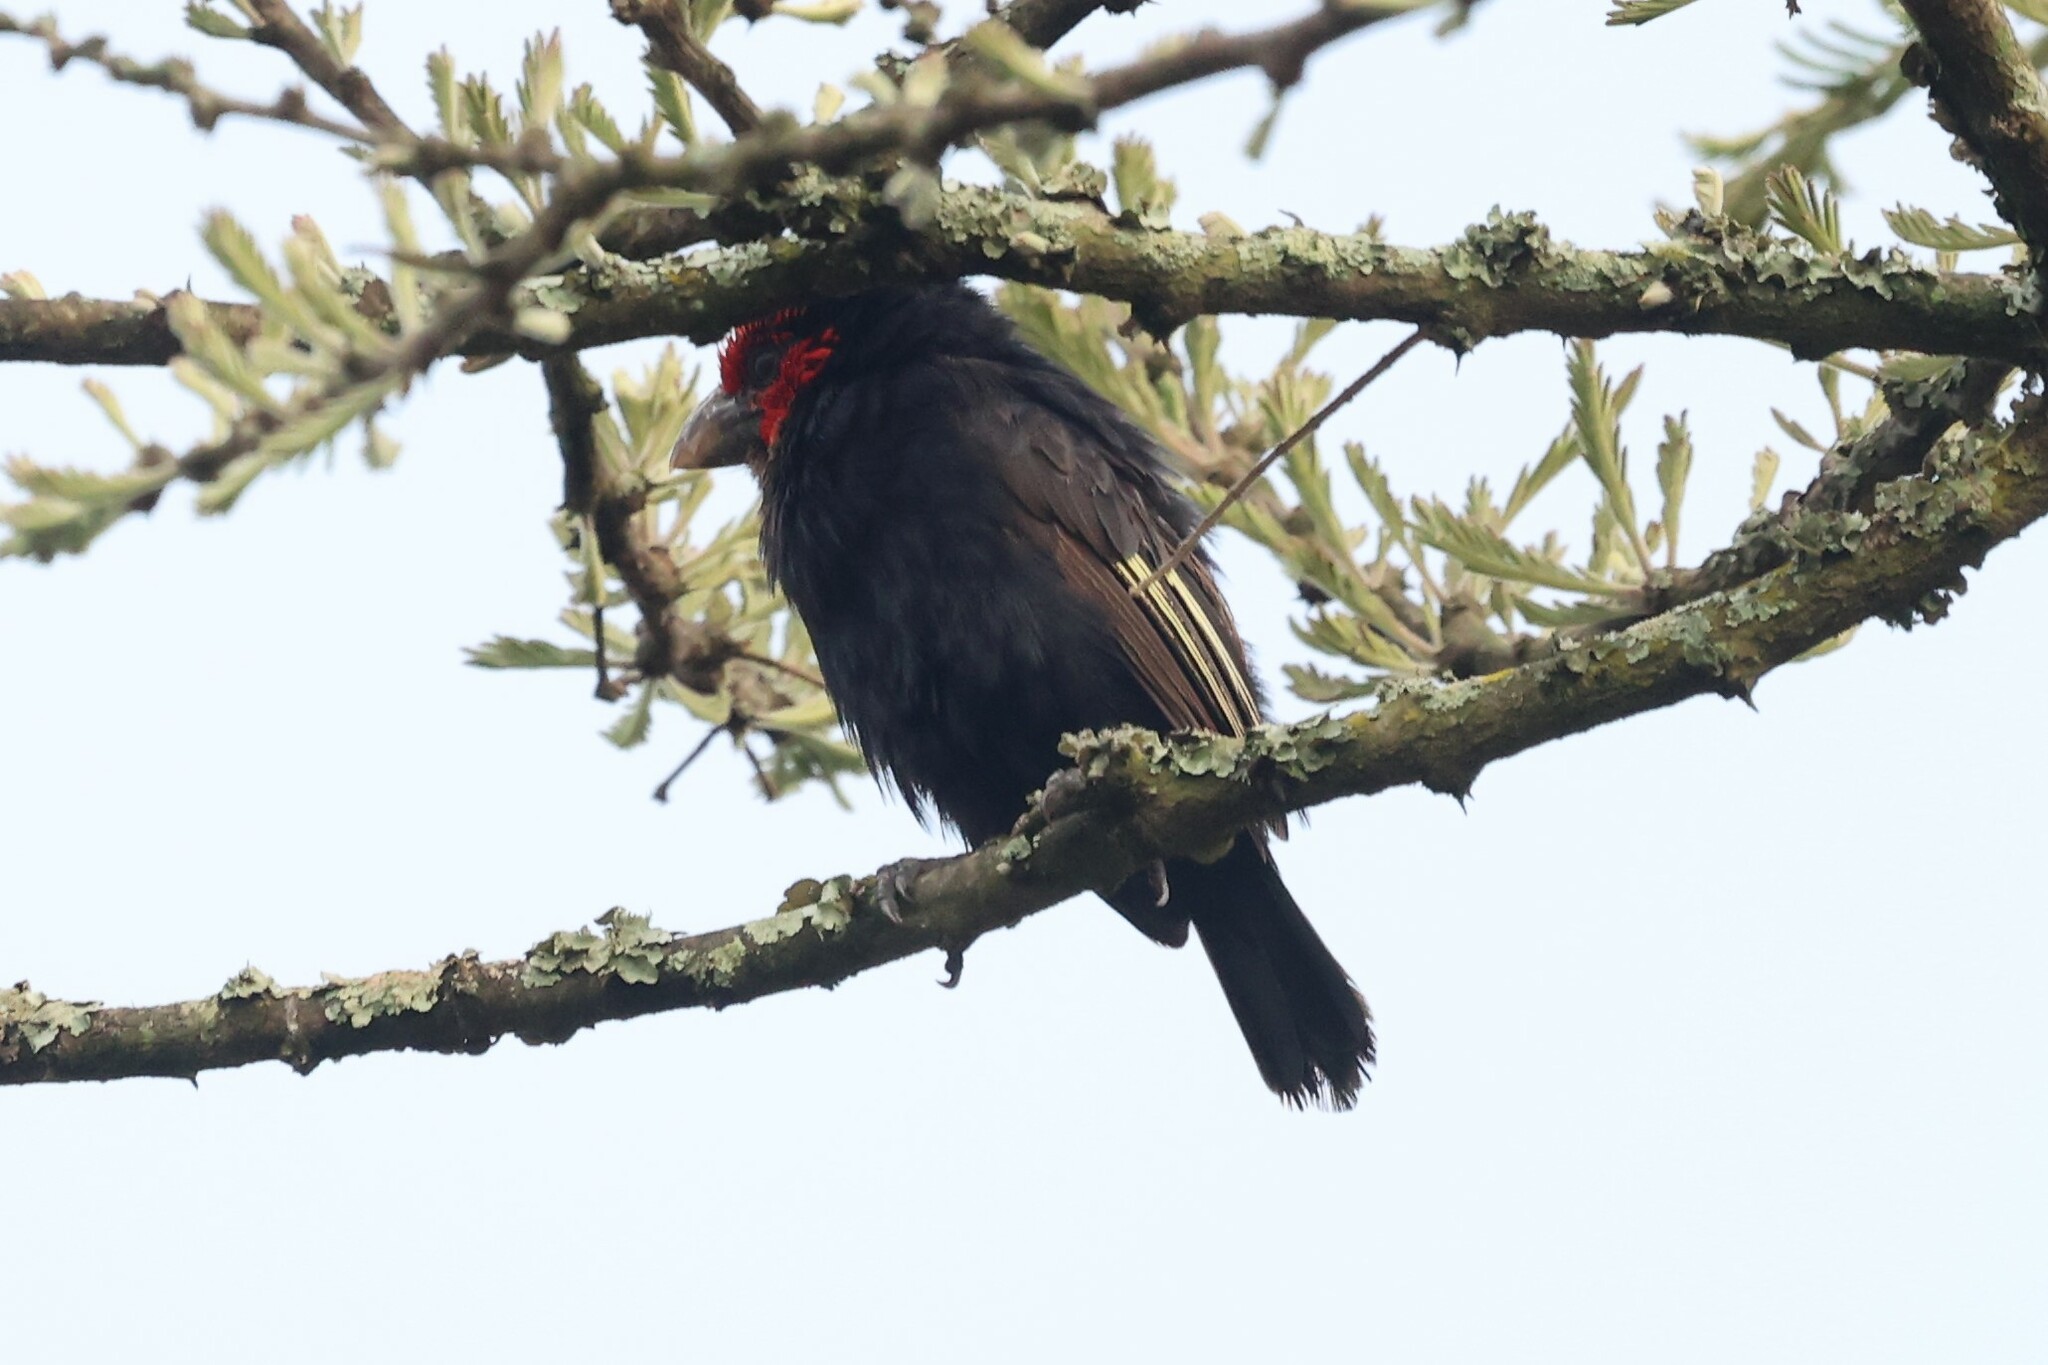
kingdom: Animalia
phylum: Chordata
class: Aves
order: Piciformes
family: Lybiidae
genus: Lybius
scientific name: Lybius rubrifacies
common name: Red-faced barbet
